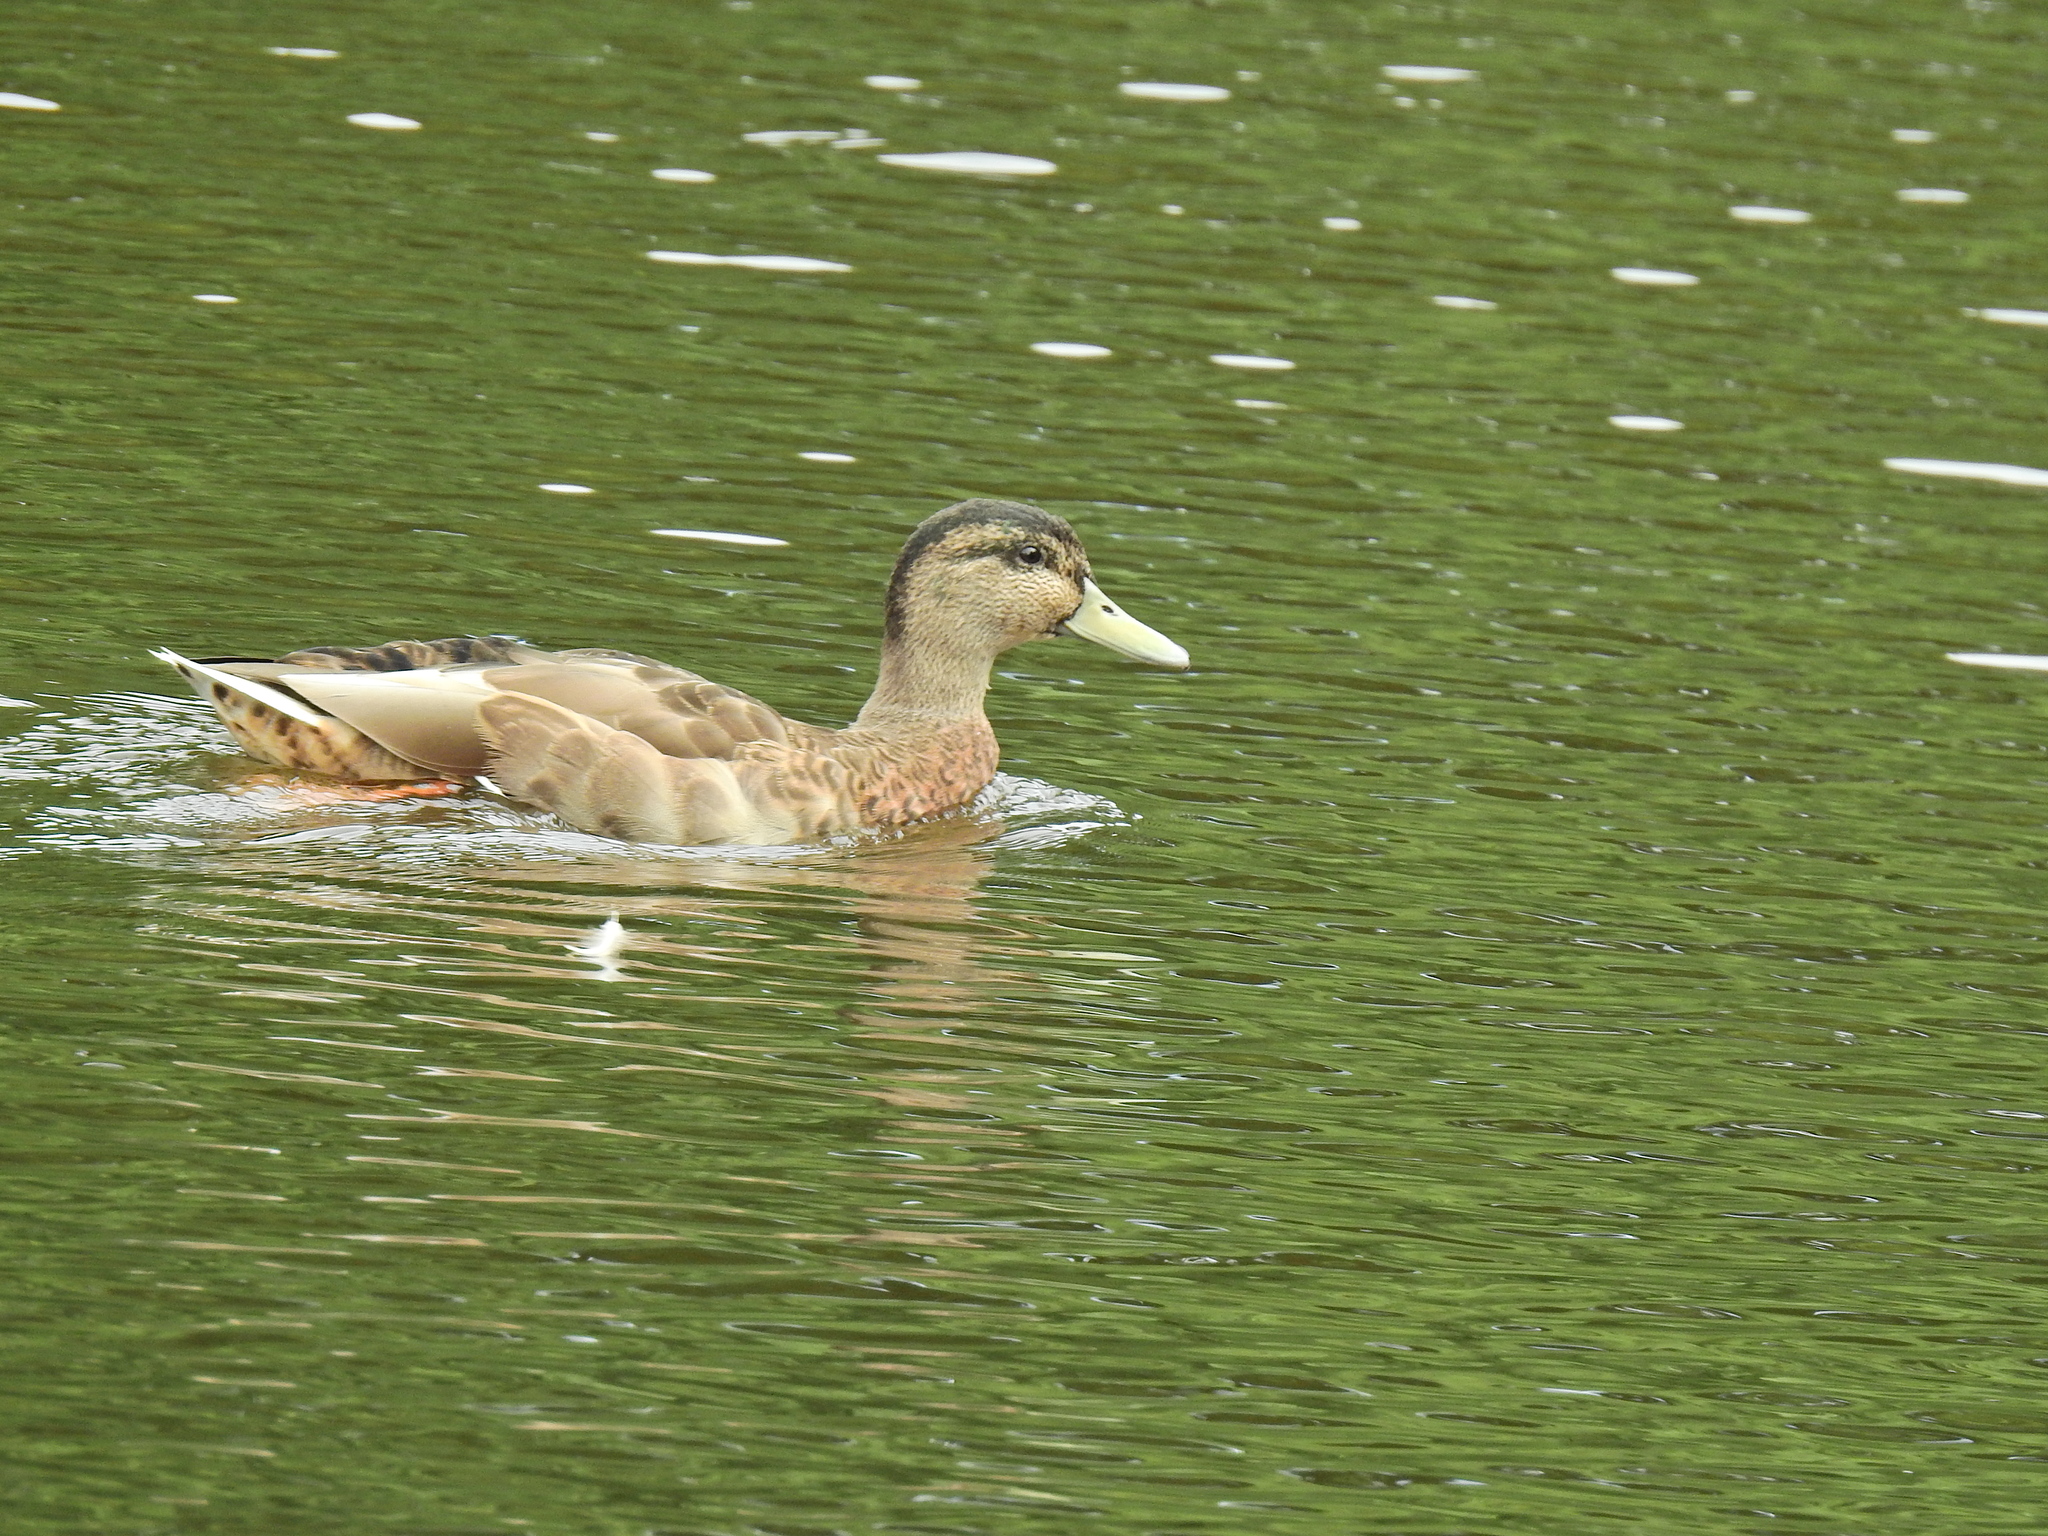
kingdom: Animalia
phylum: Chordata
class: Aves
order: Anseriformes
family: Anatidae
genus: Anas
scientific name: Anas platyrhynchos
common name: Mallard
